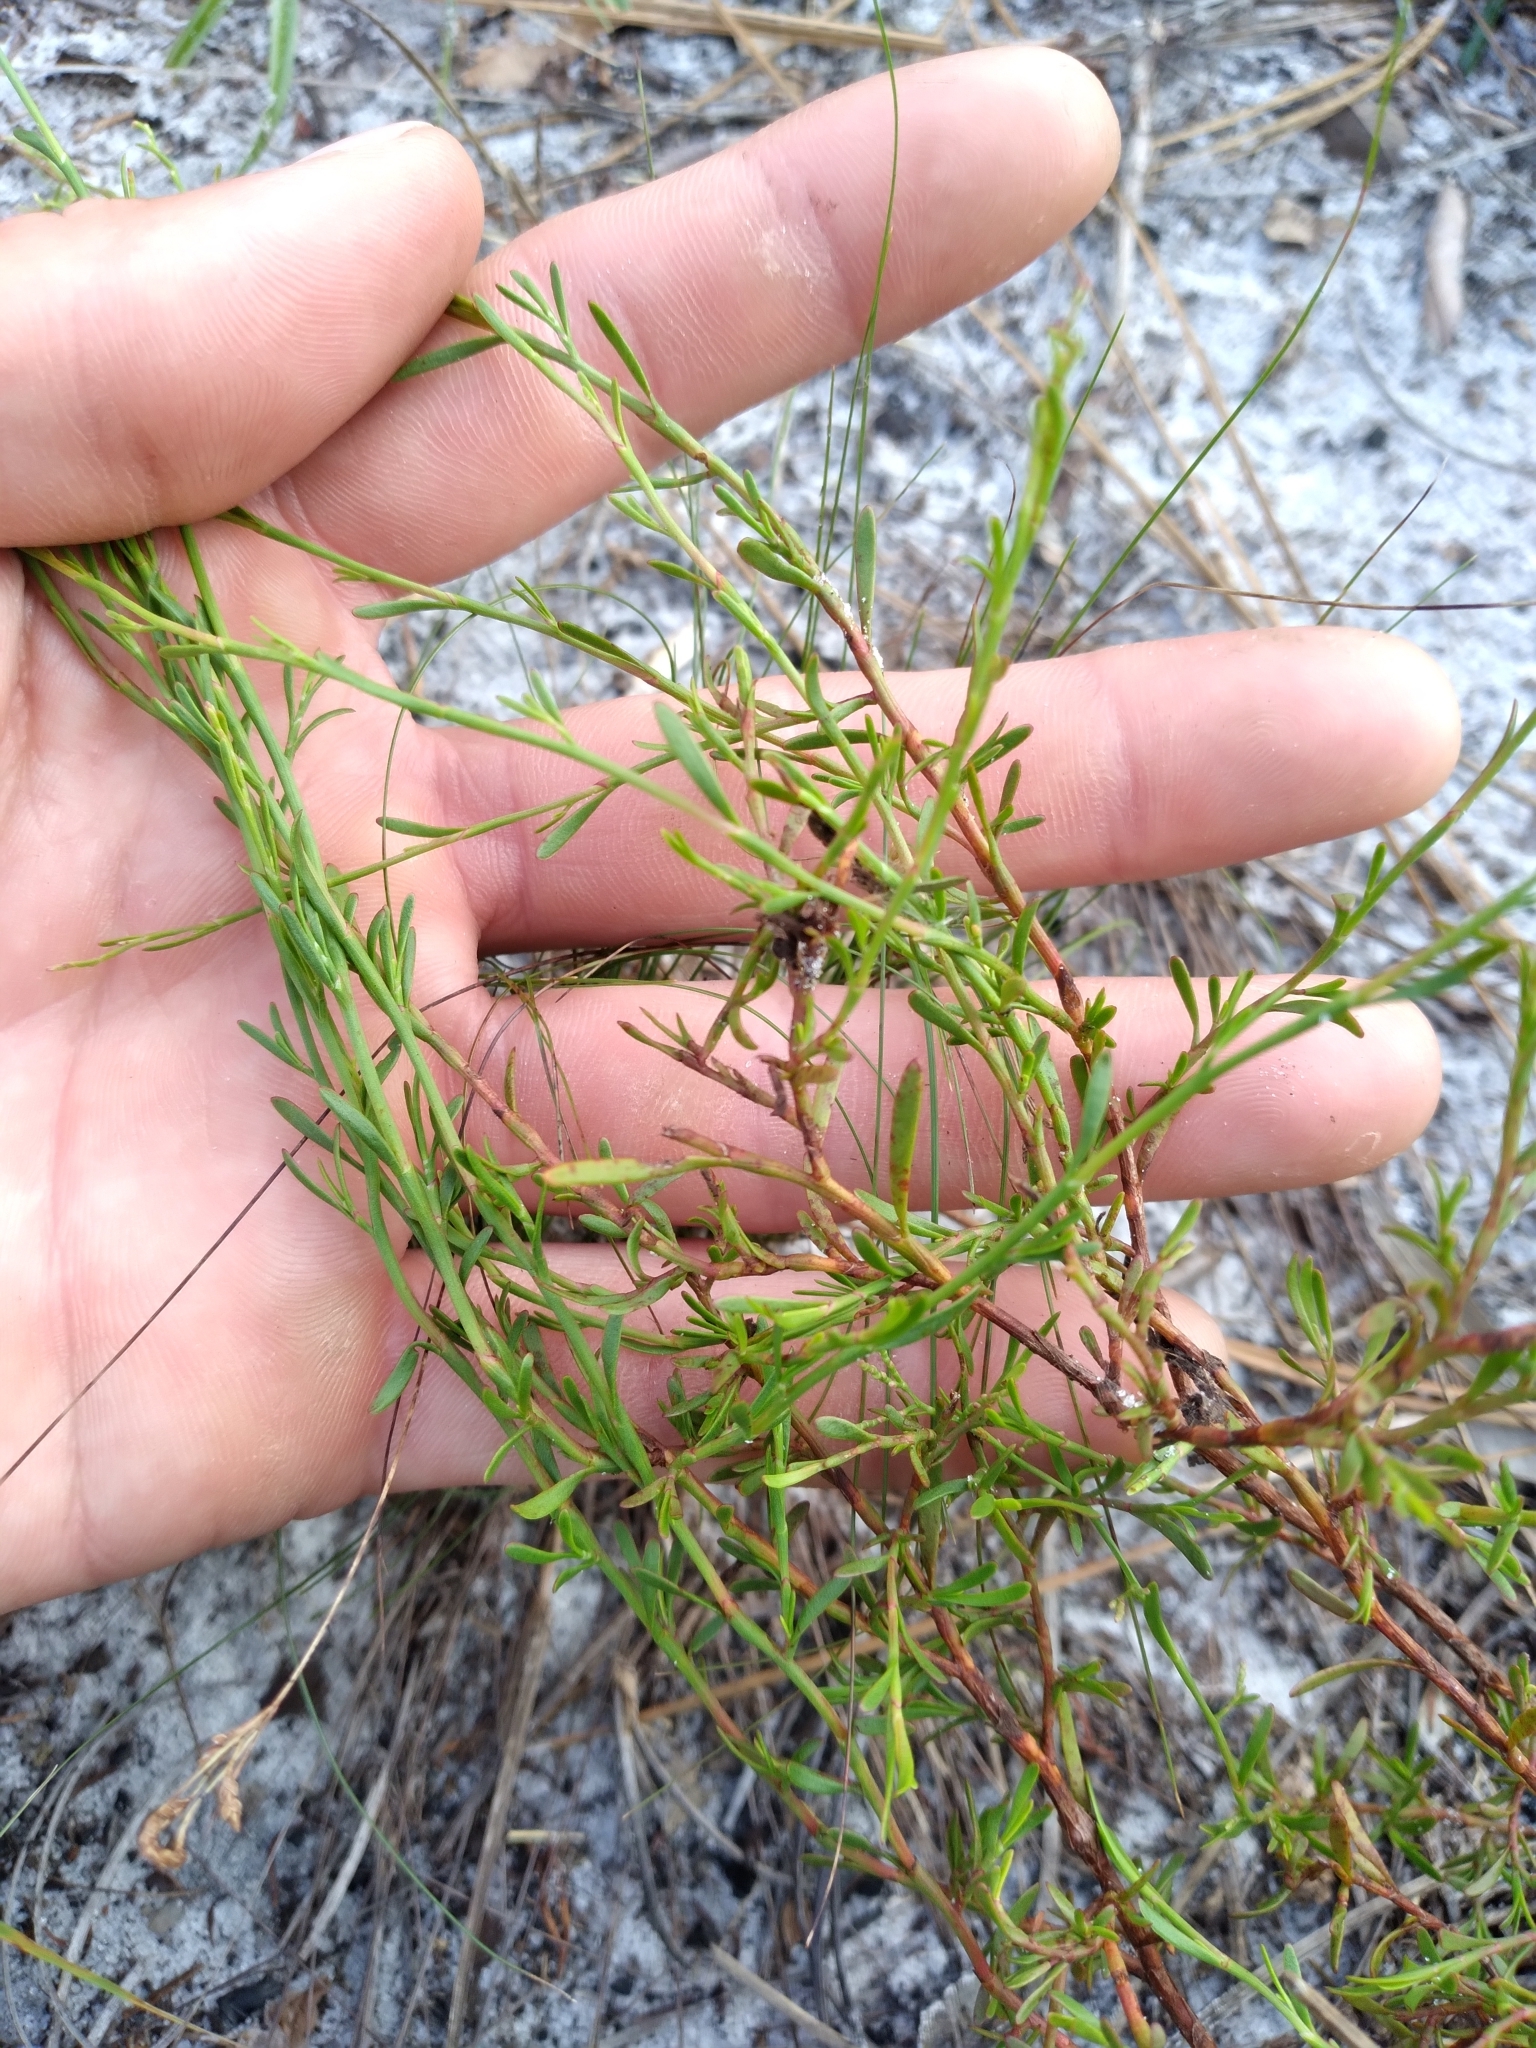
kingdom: Plantae
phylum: Tracheophyta
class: Magnoliopsida
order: Caryophyllales
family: Polygonaceae
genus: Polygonella
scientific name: Polygonella polygama
